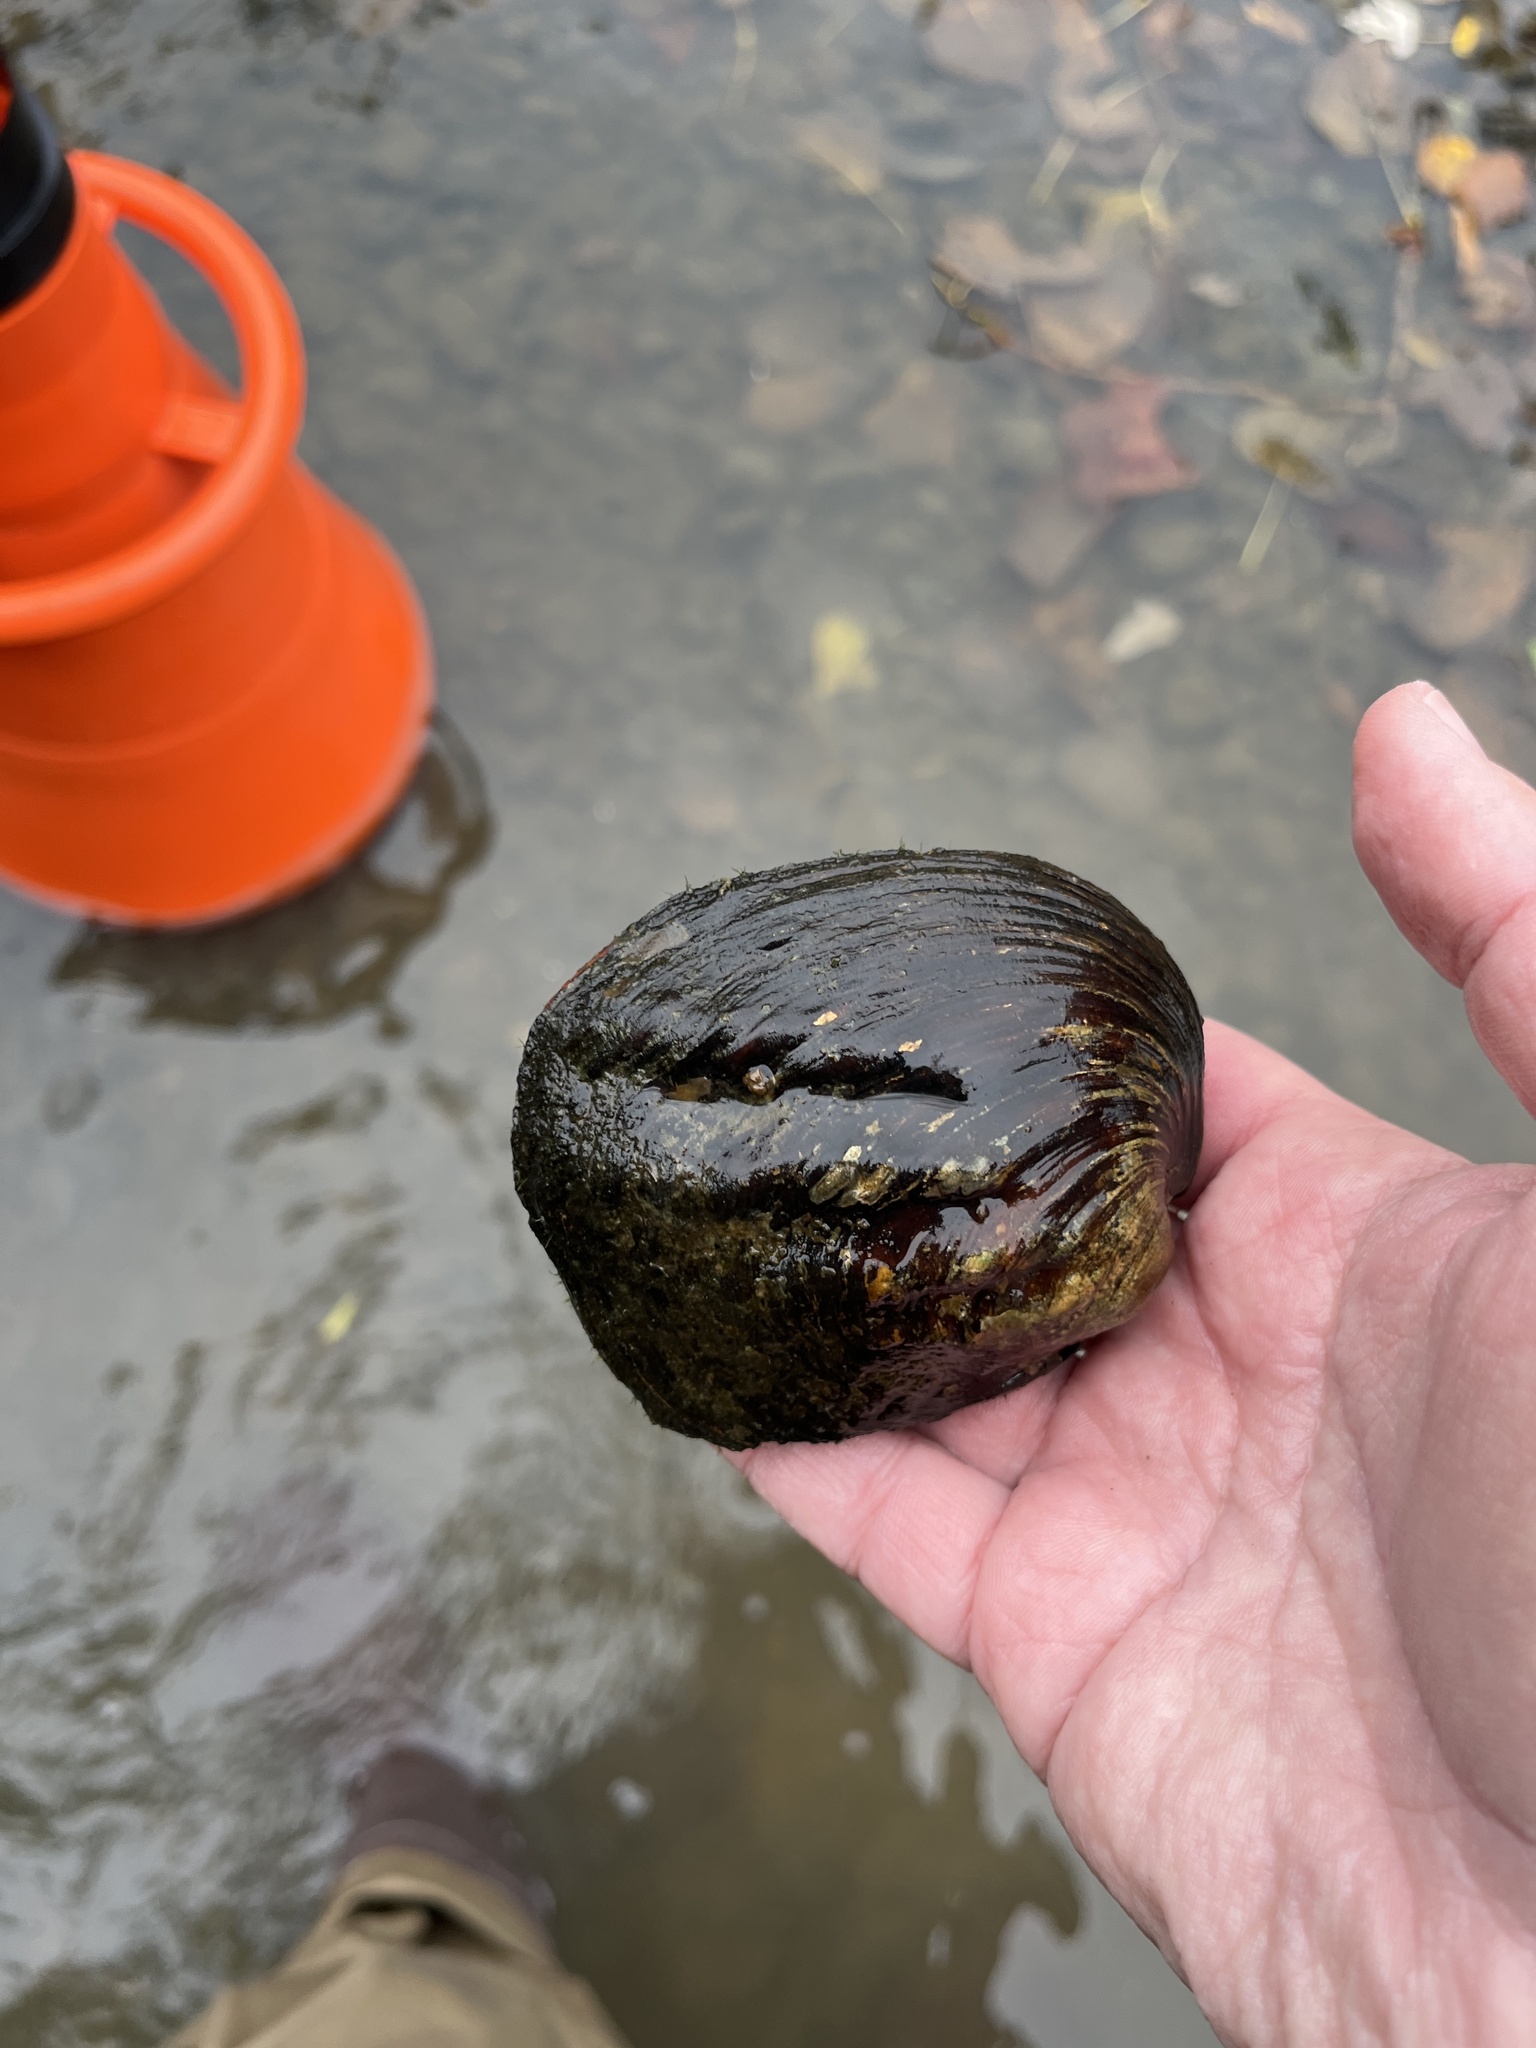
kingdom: Animalia
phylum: Mollusca
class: Bivalvia
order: Unionida
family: Unionidae
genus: Amblema
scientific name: Amblema plicata
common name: Threeridge
